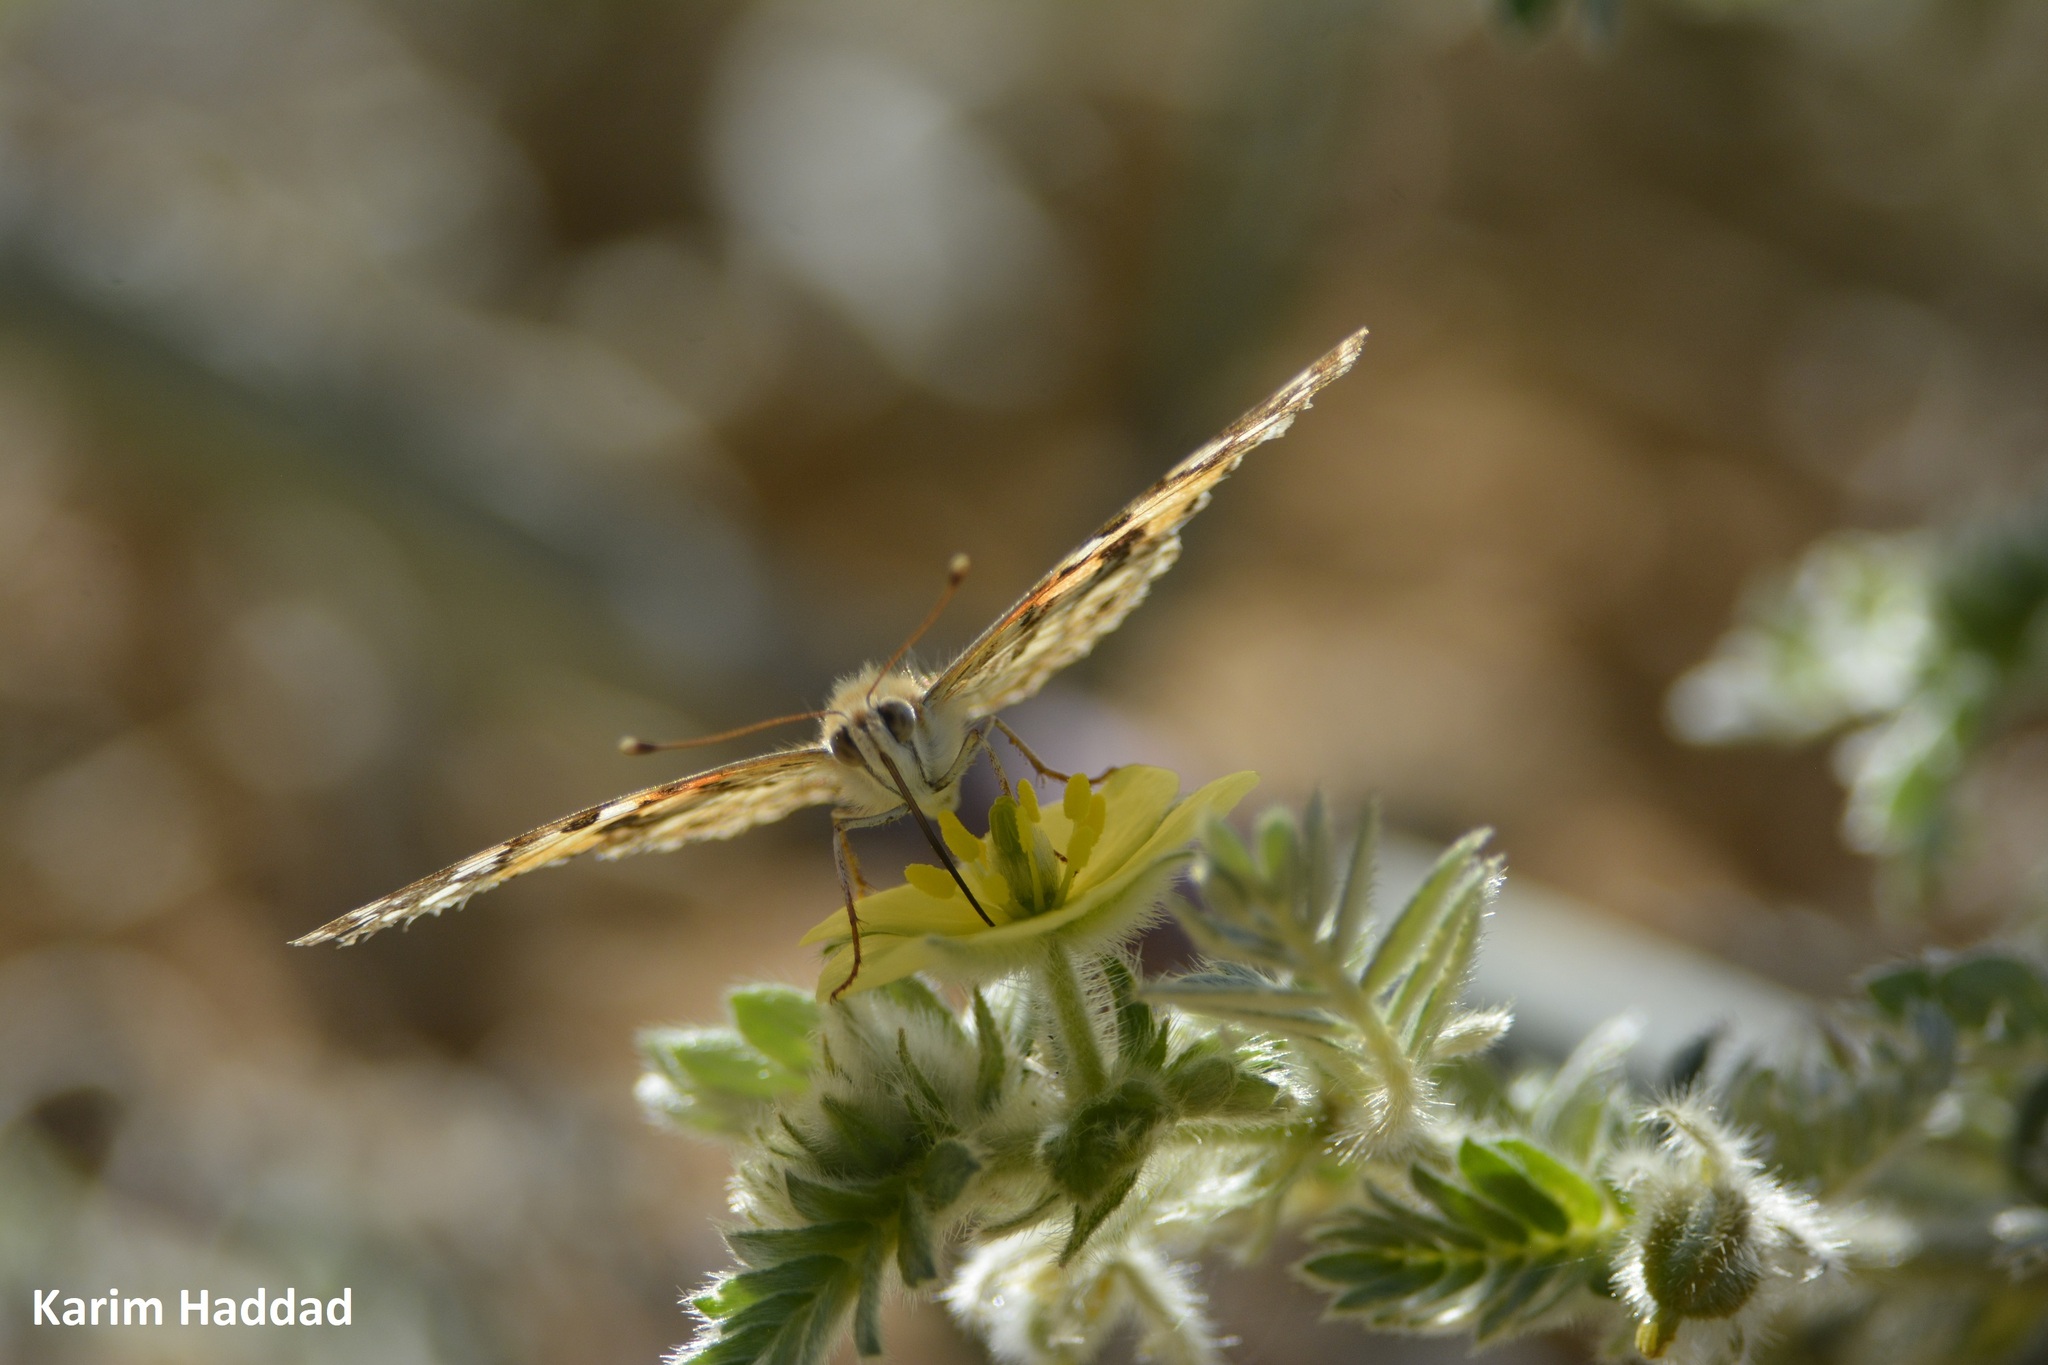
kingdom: Animalia
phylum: Arthropoda
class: Insecta
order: Lepidoptera
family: Nymphalidae
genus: Vanessa
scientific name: Vanessa cardui
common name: Painted lady
